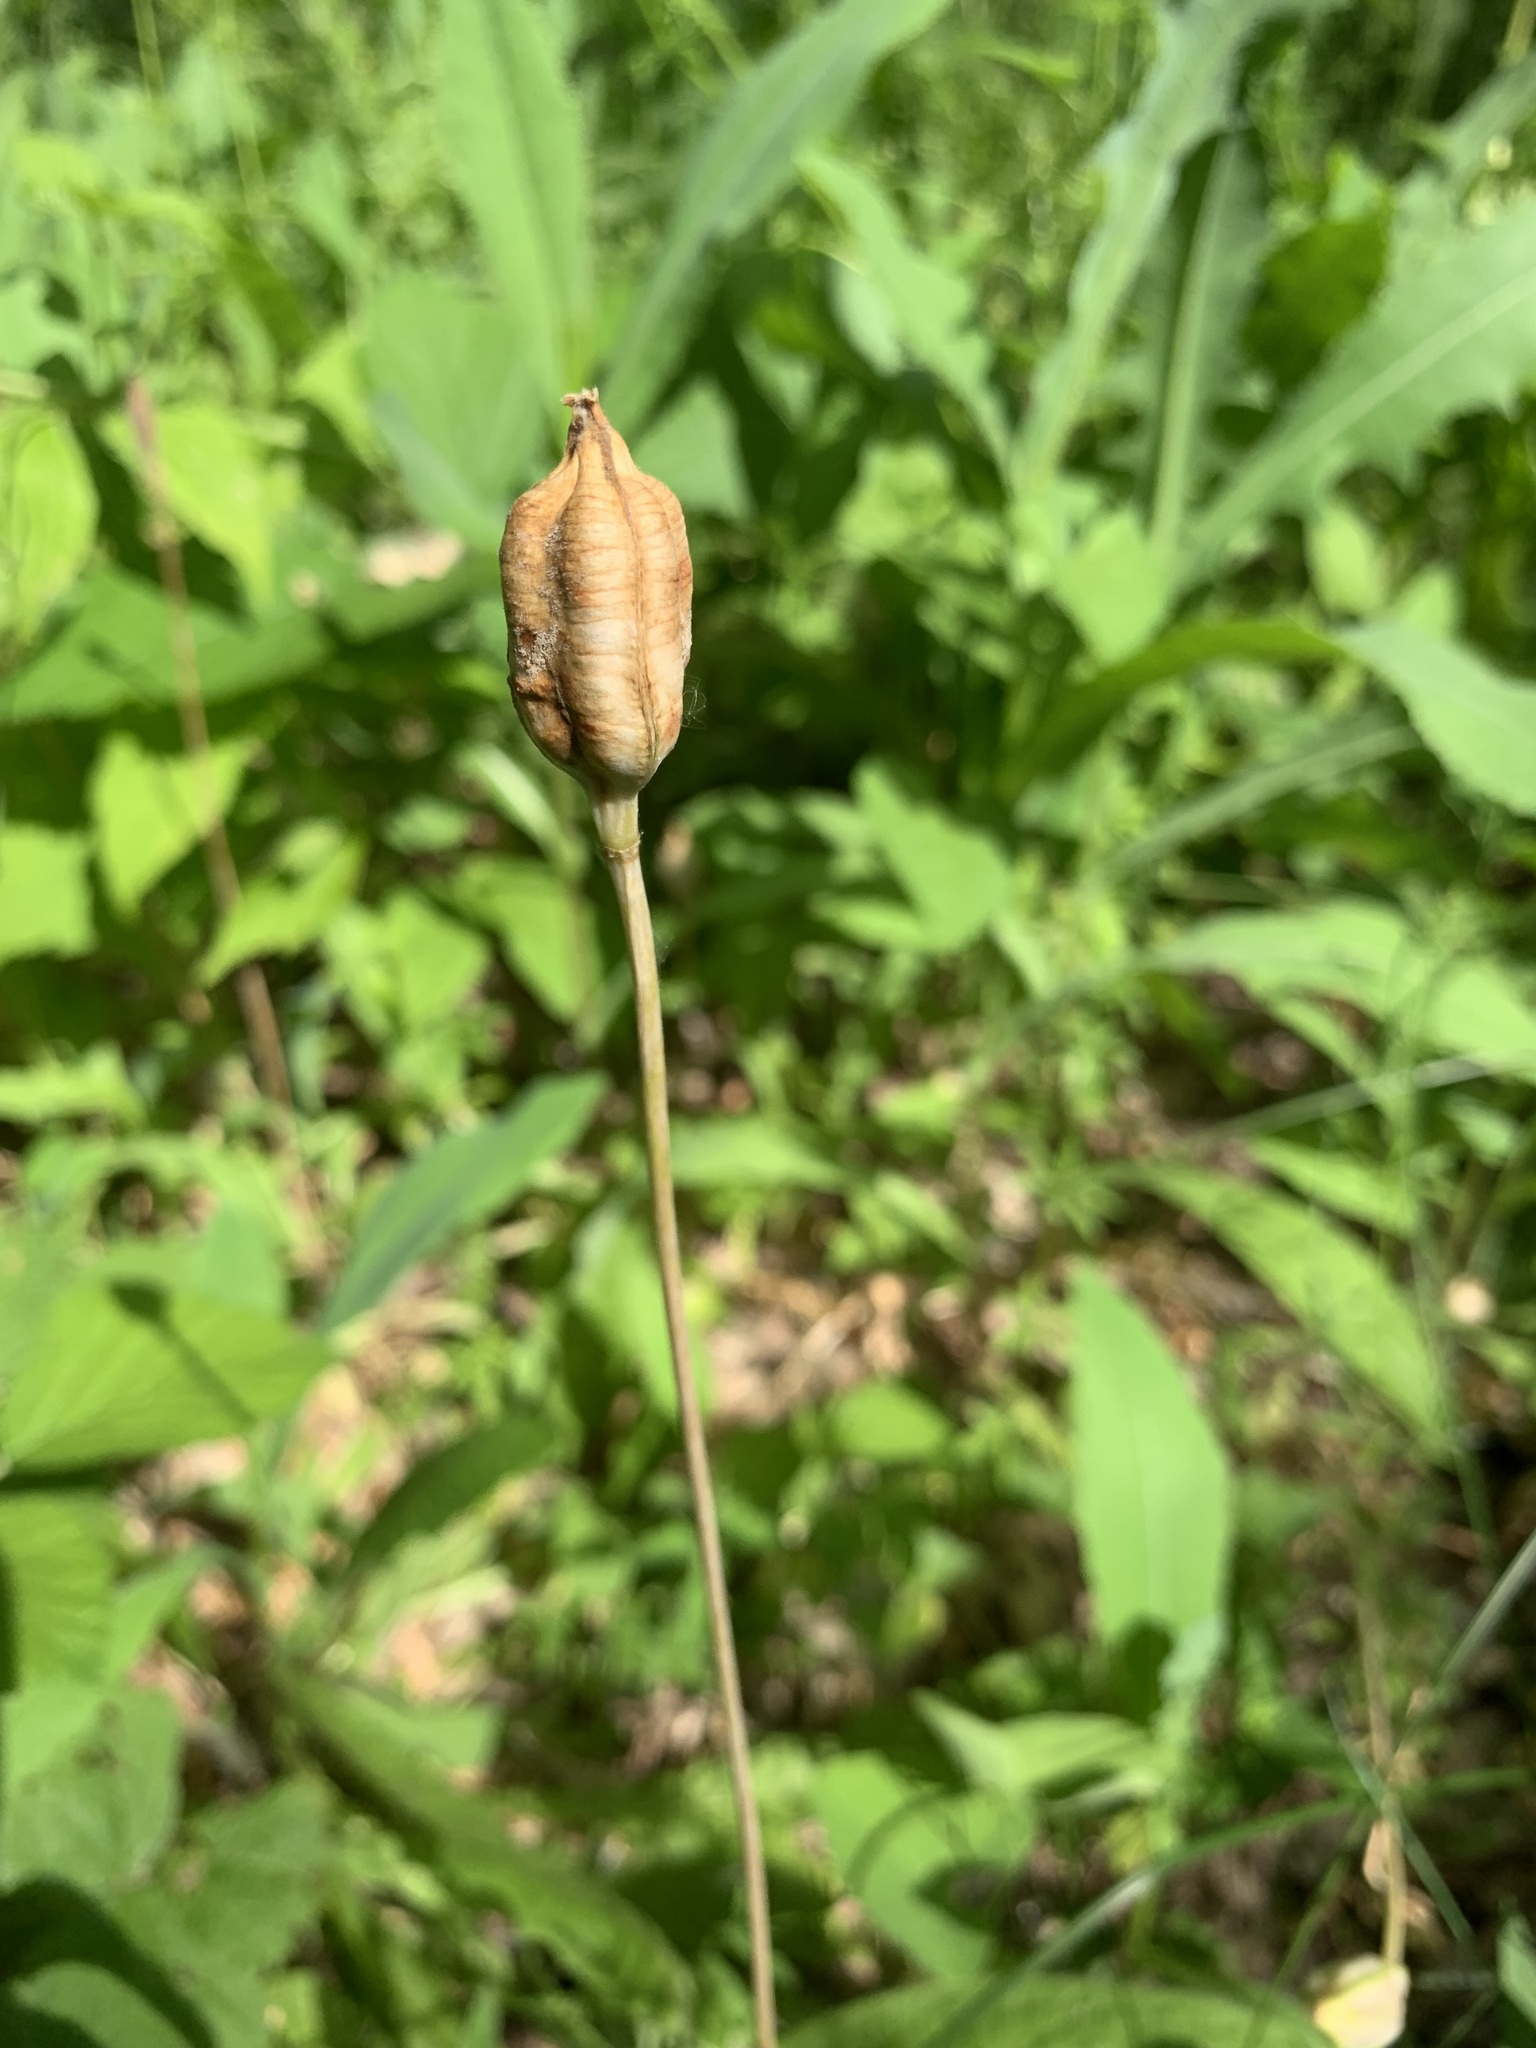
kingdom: Plantae
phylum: Tracheophyta
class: Liliopsida
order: Liliales
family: Liliaceae
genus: Tulipa
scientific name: Tulipa sylvestris
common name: Wild tulip
